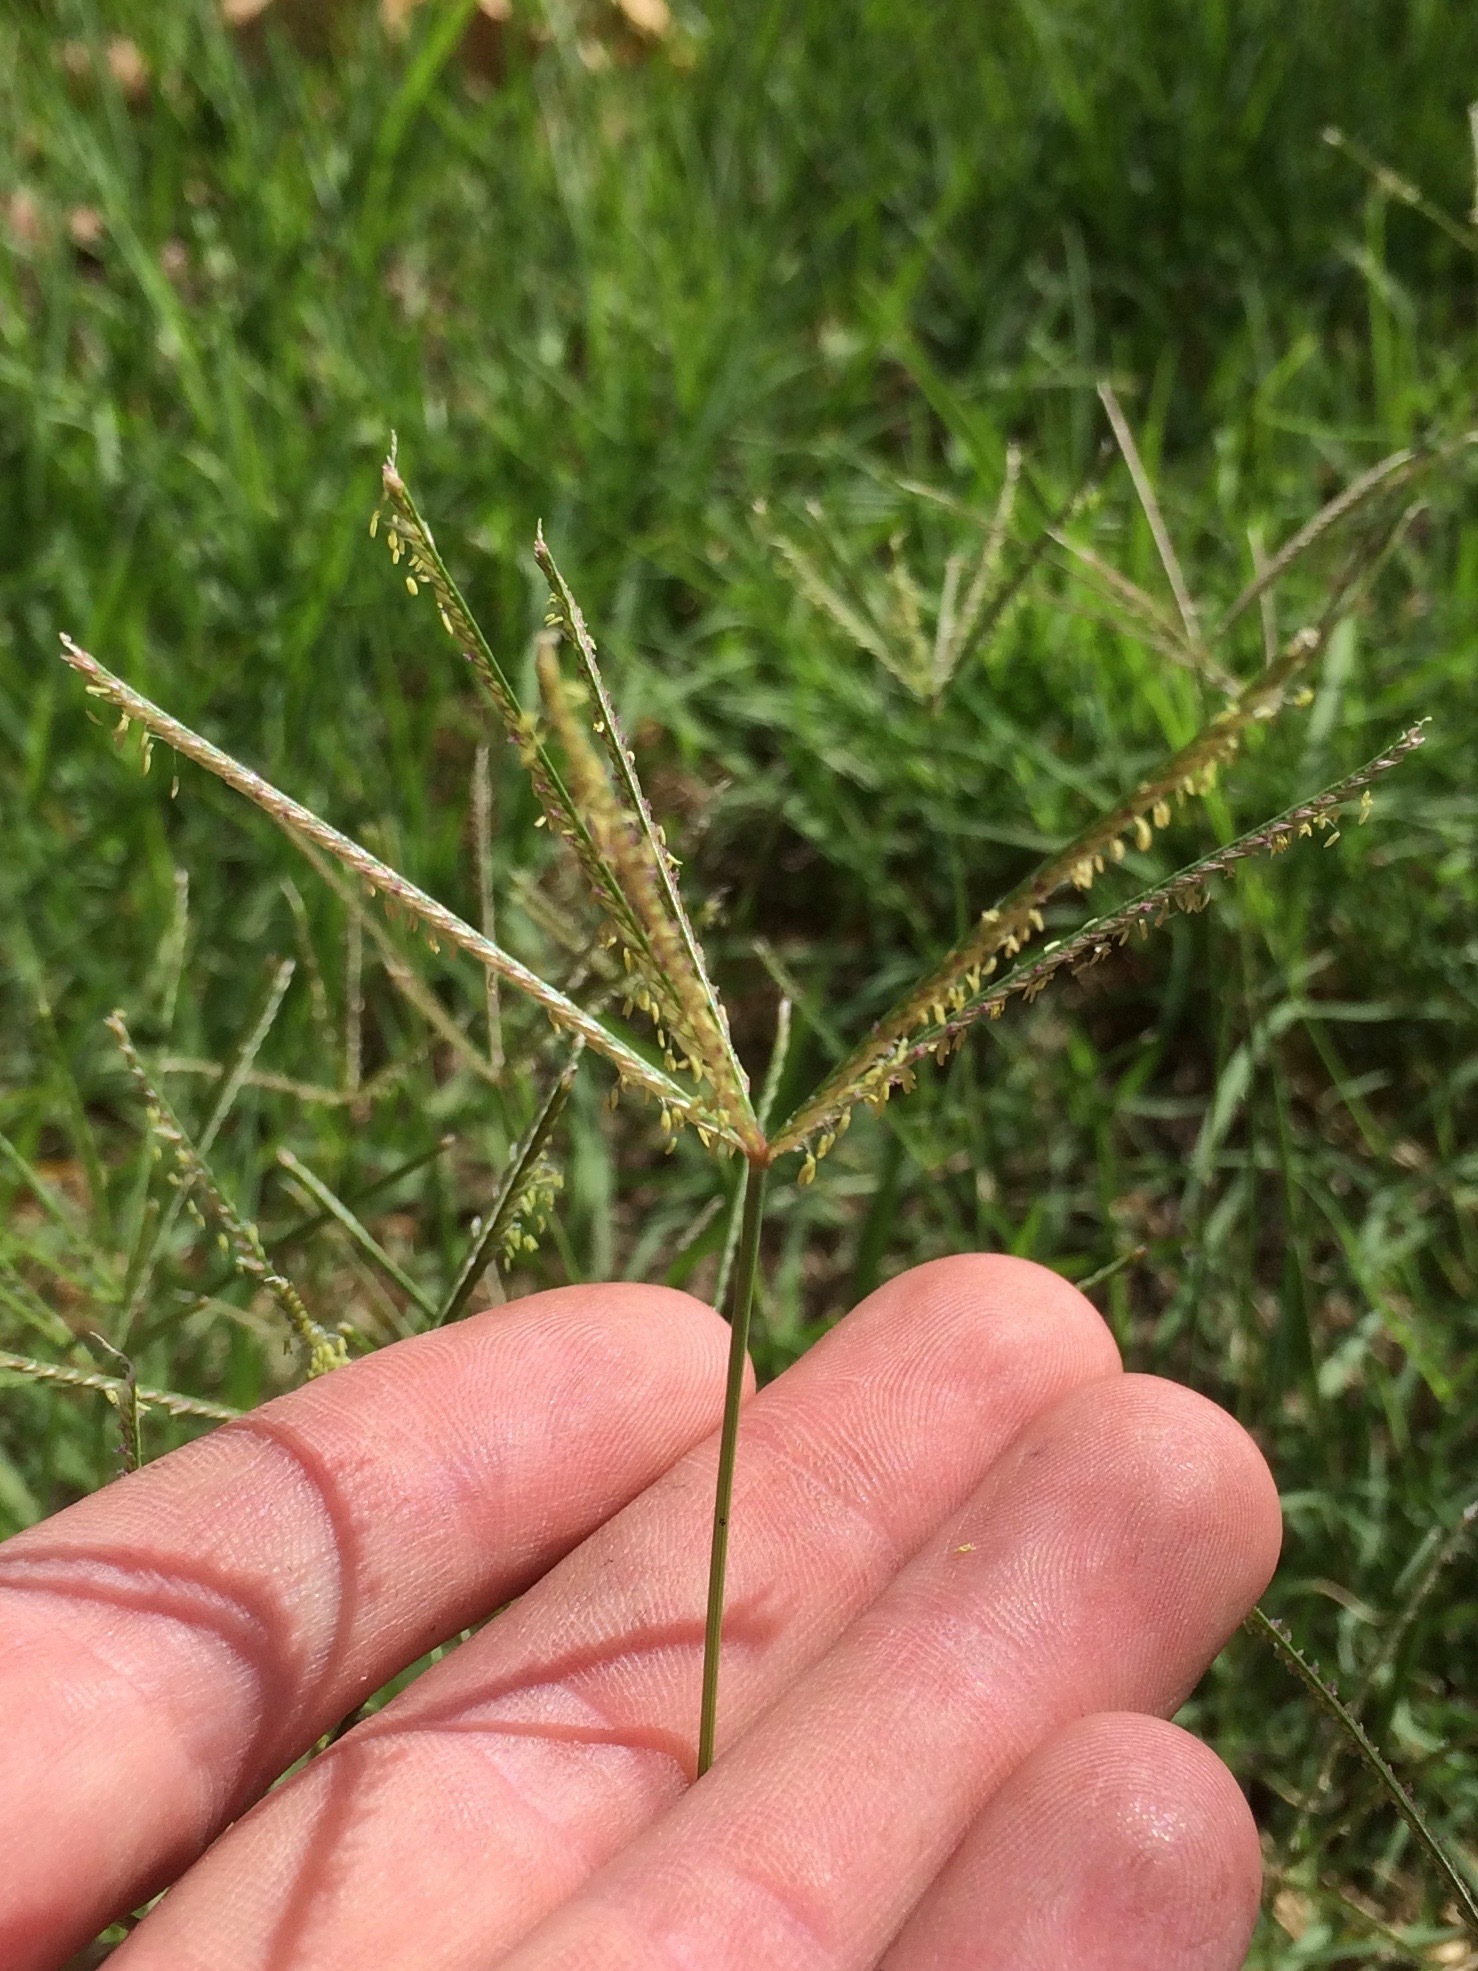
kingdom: Plantae
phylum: Tracheophyta
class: Liliopsida
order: Poales
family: Poaceae
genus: Cynodon
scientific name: Cynodon dactylon
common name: Bermuda grass
